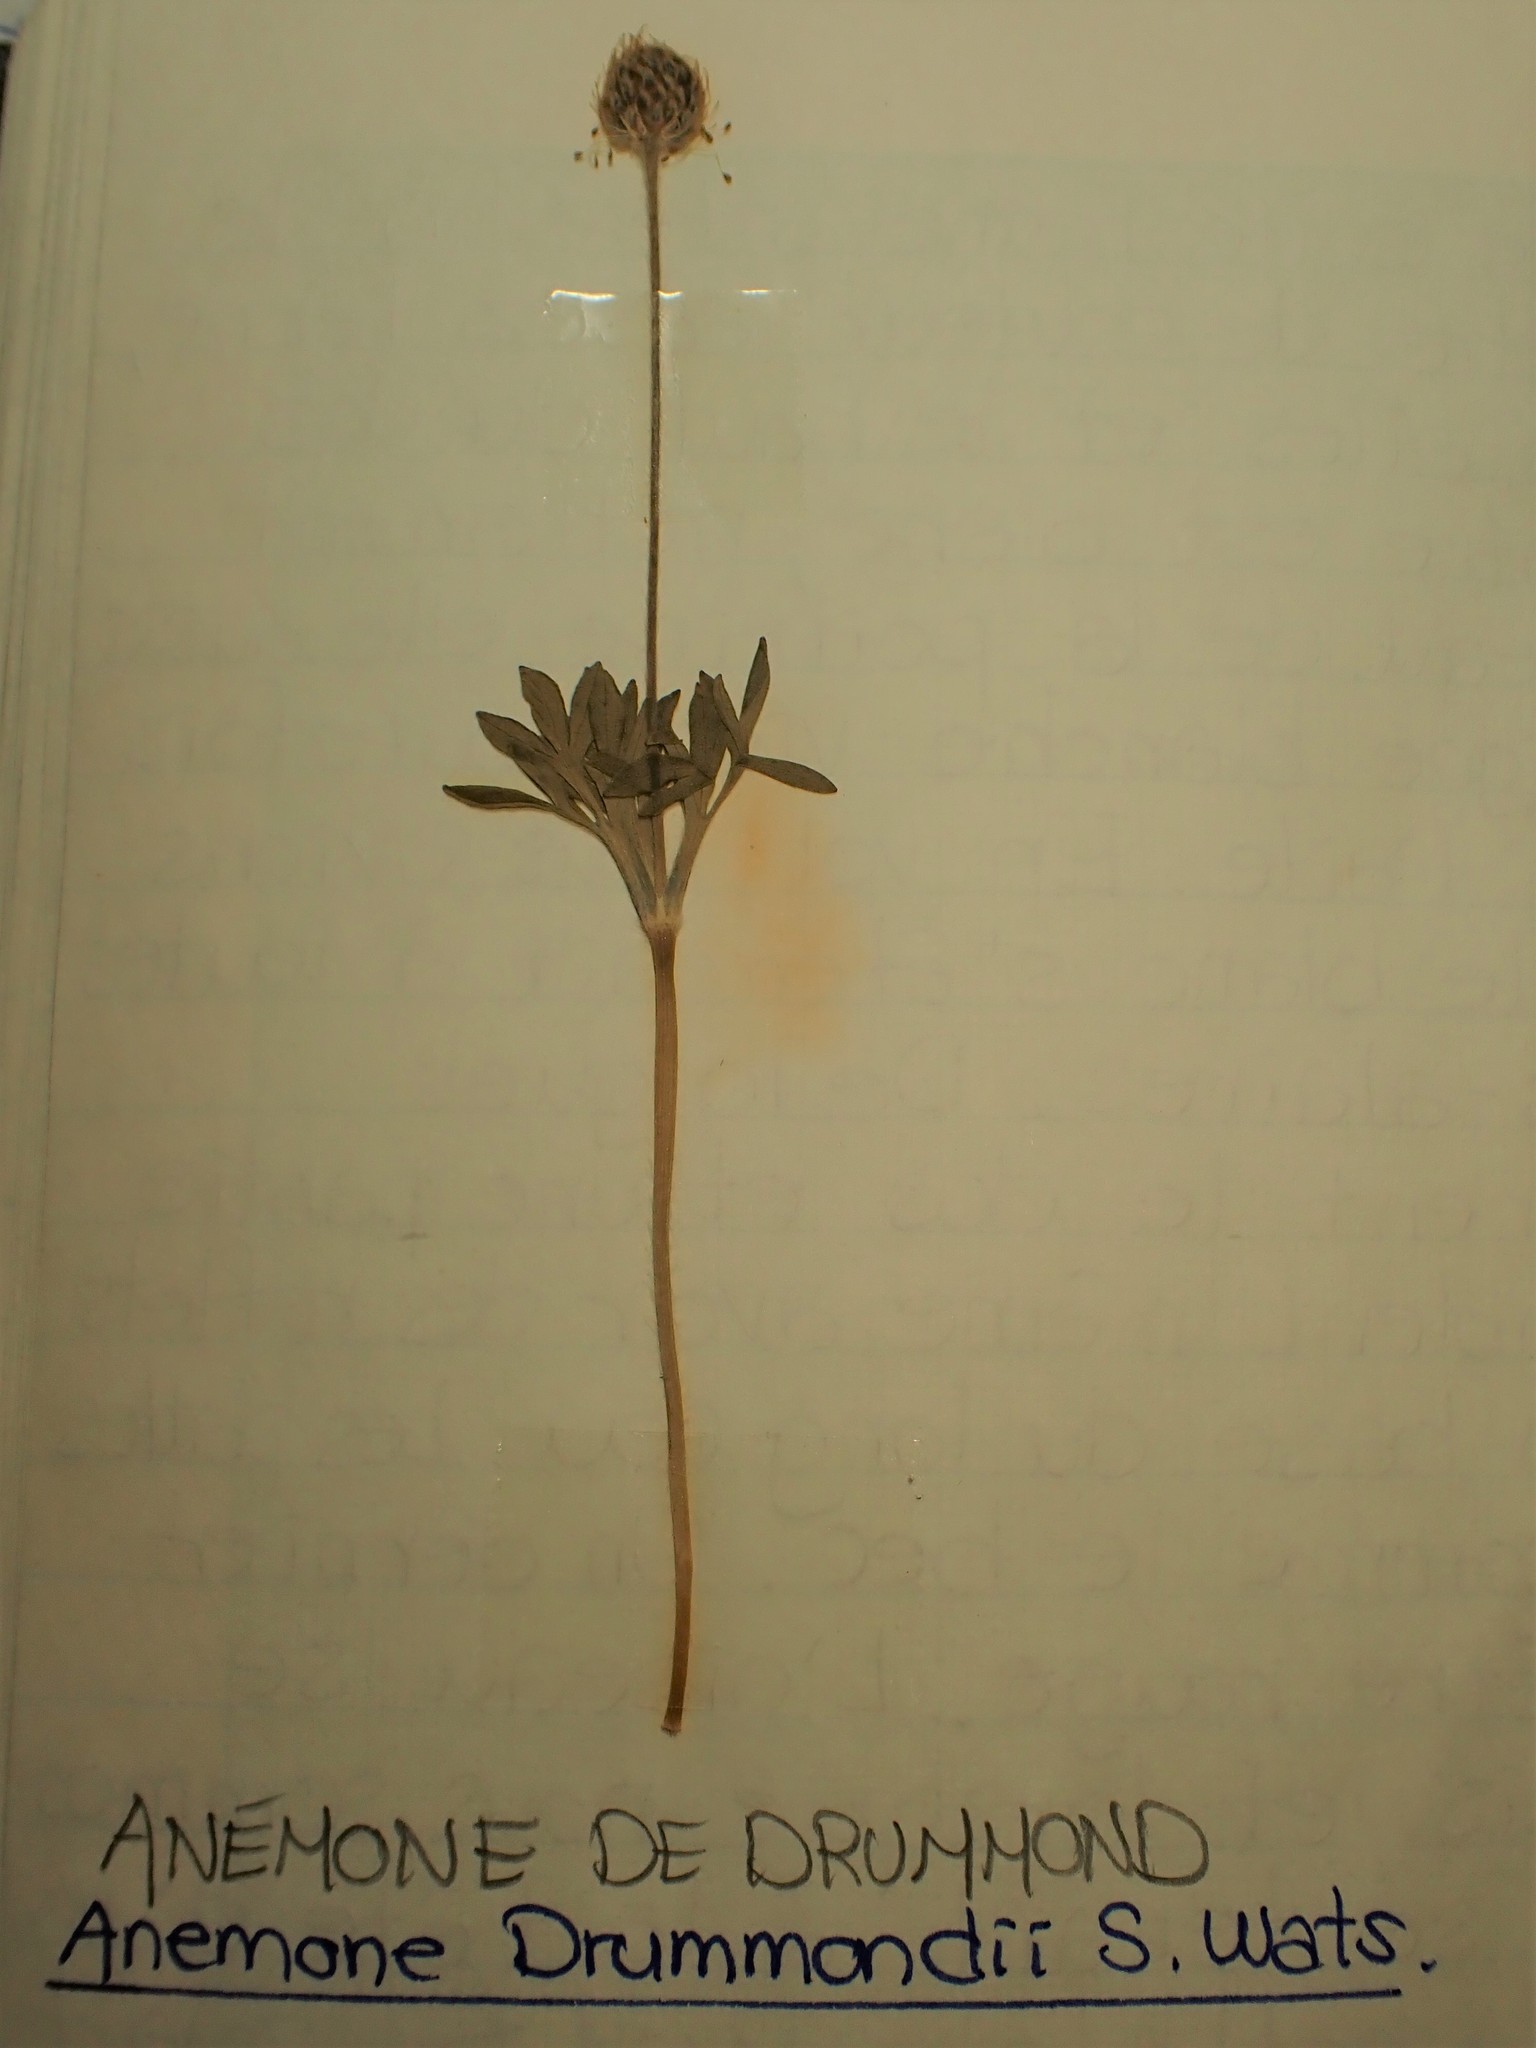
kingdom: Plantae
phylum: Tracheophyta
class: Magnoliopsida
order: Ranunculales
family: Ranunculaceae
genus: Anemone
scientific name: Anemone drummondii
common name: Drummond's anemone
